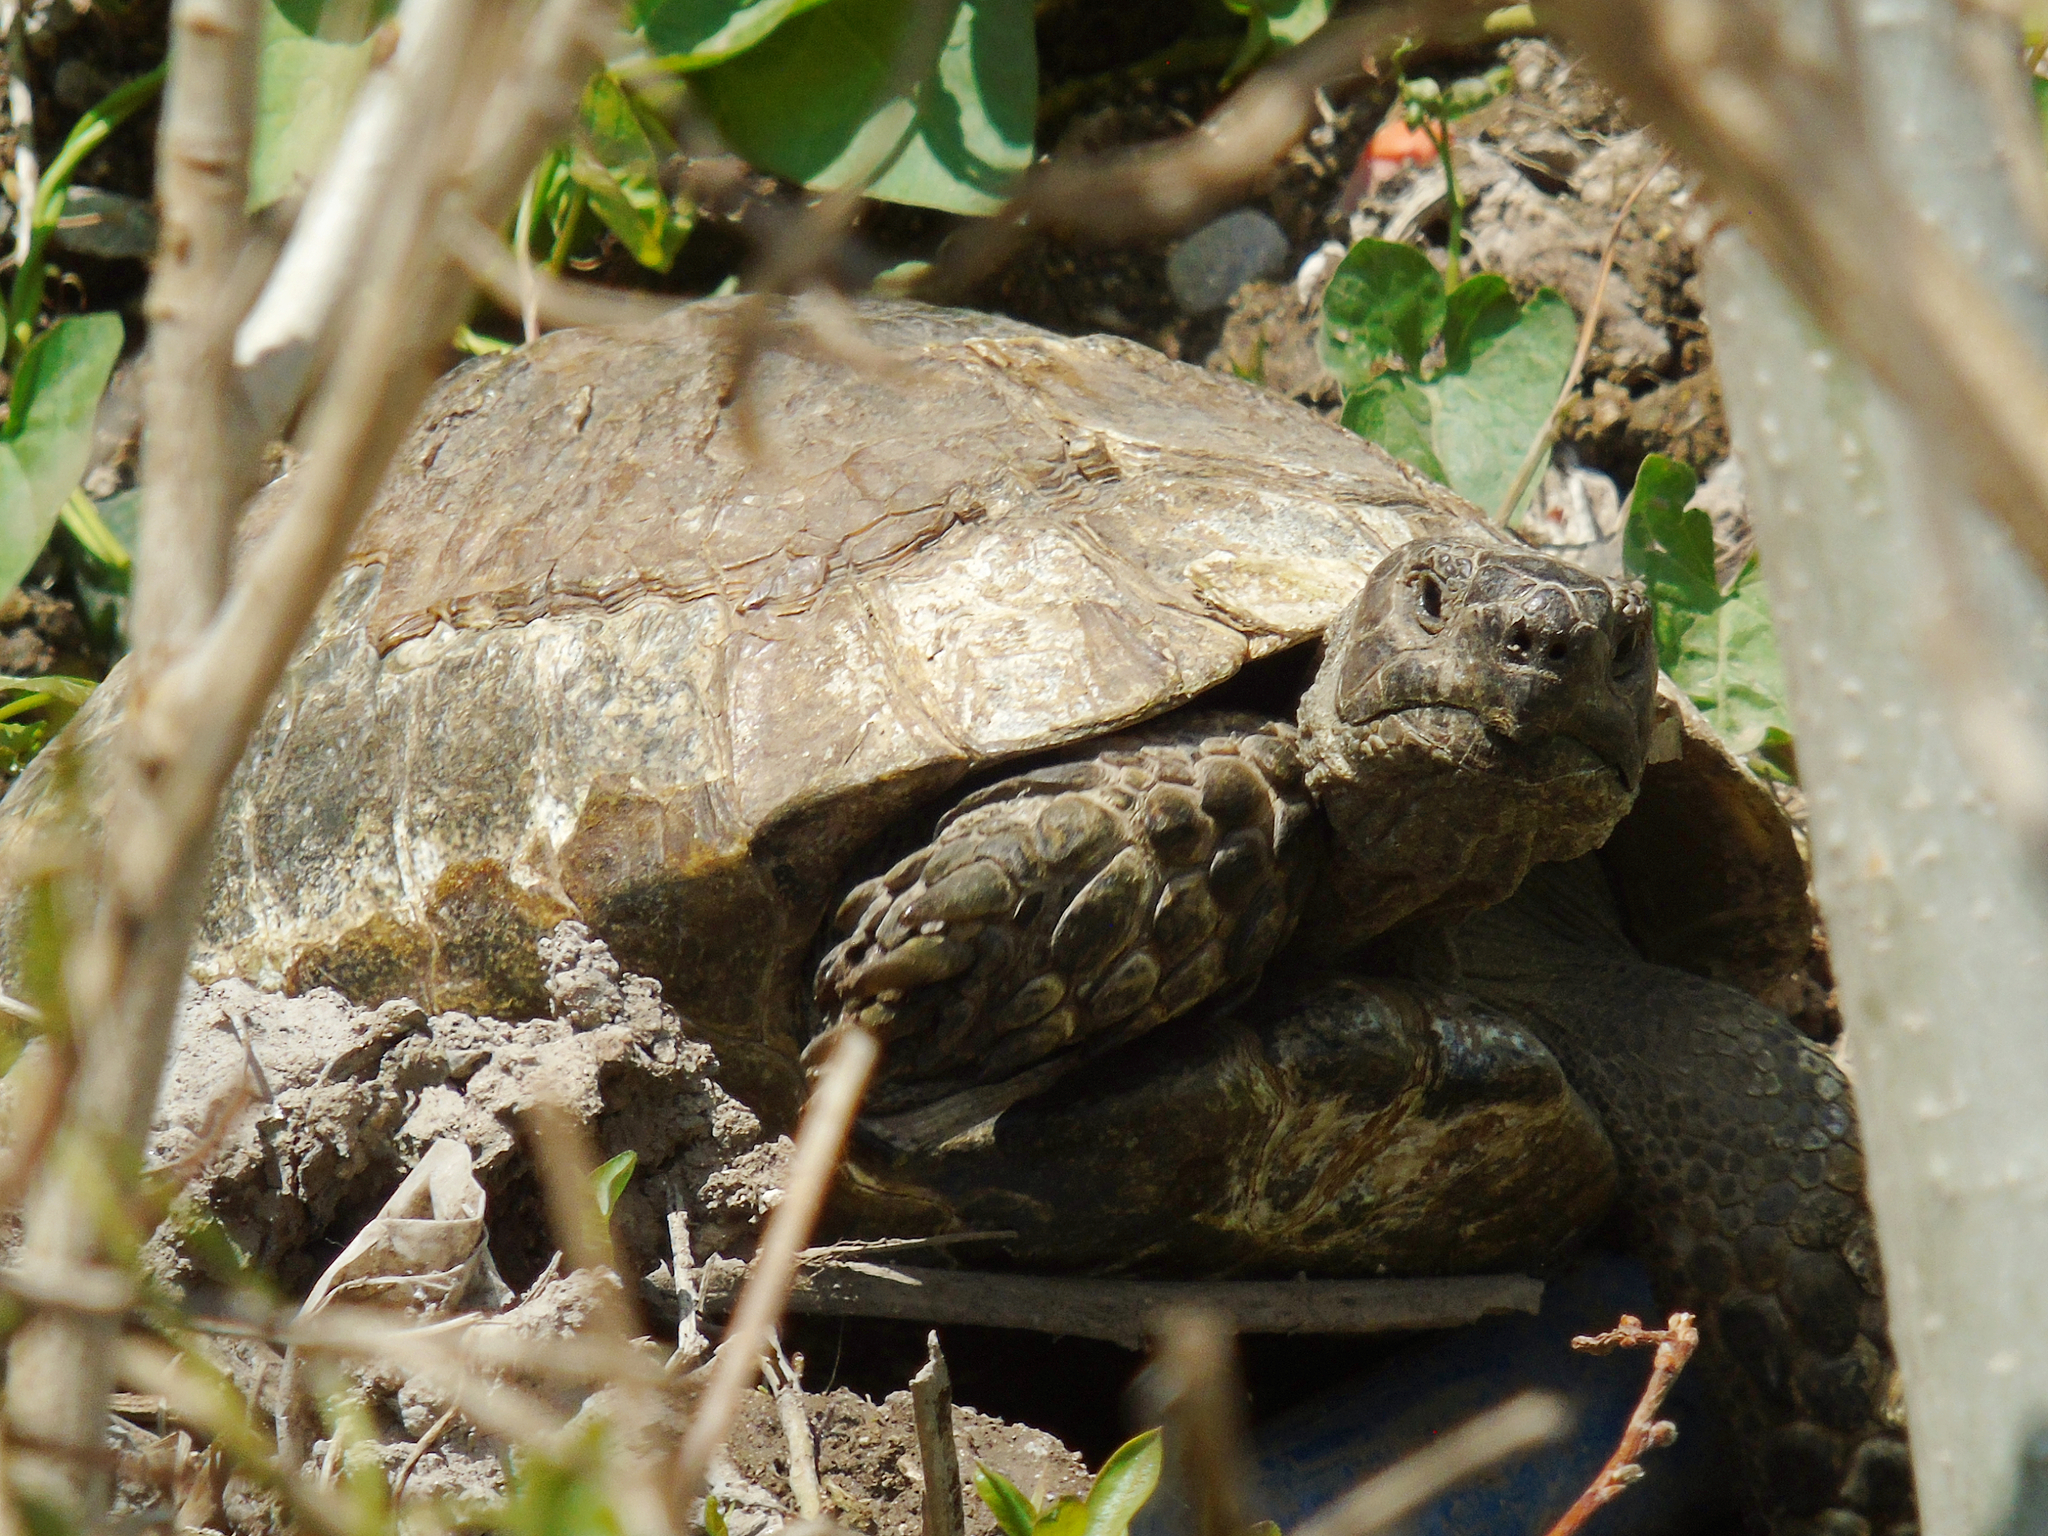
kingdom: Animalia
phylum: Chordata
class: Testudines
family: Testudinidae
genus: Testudo
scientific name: Testudo graeca
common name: Common tortoise
